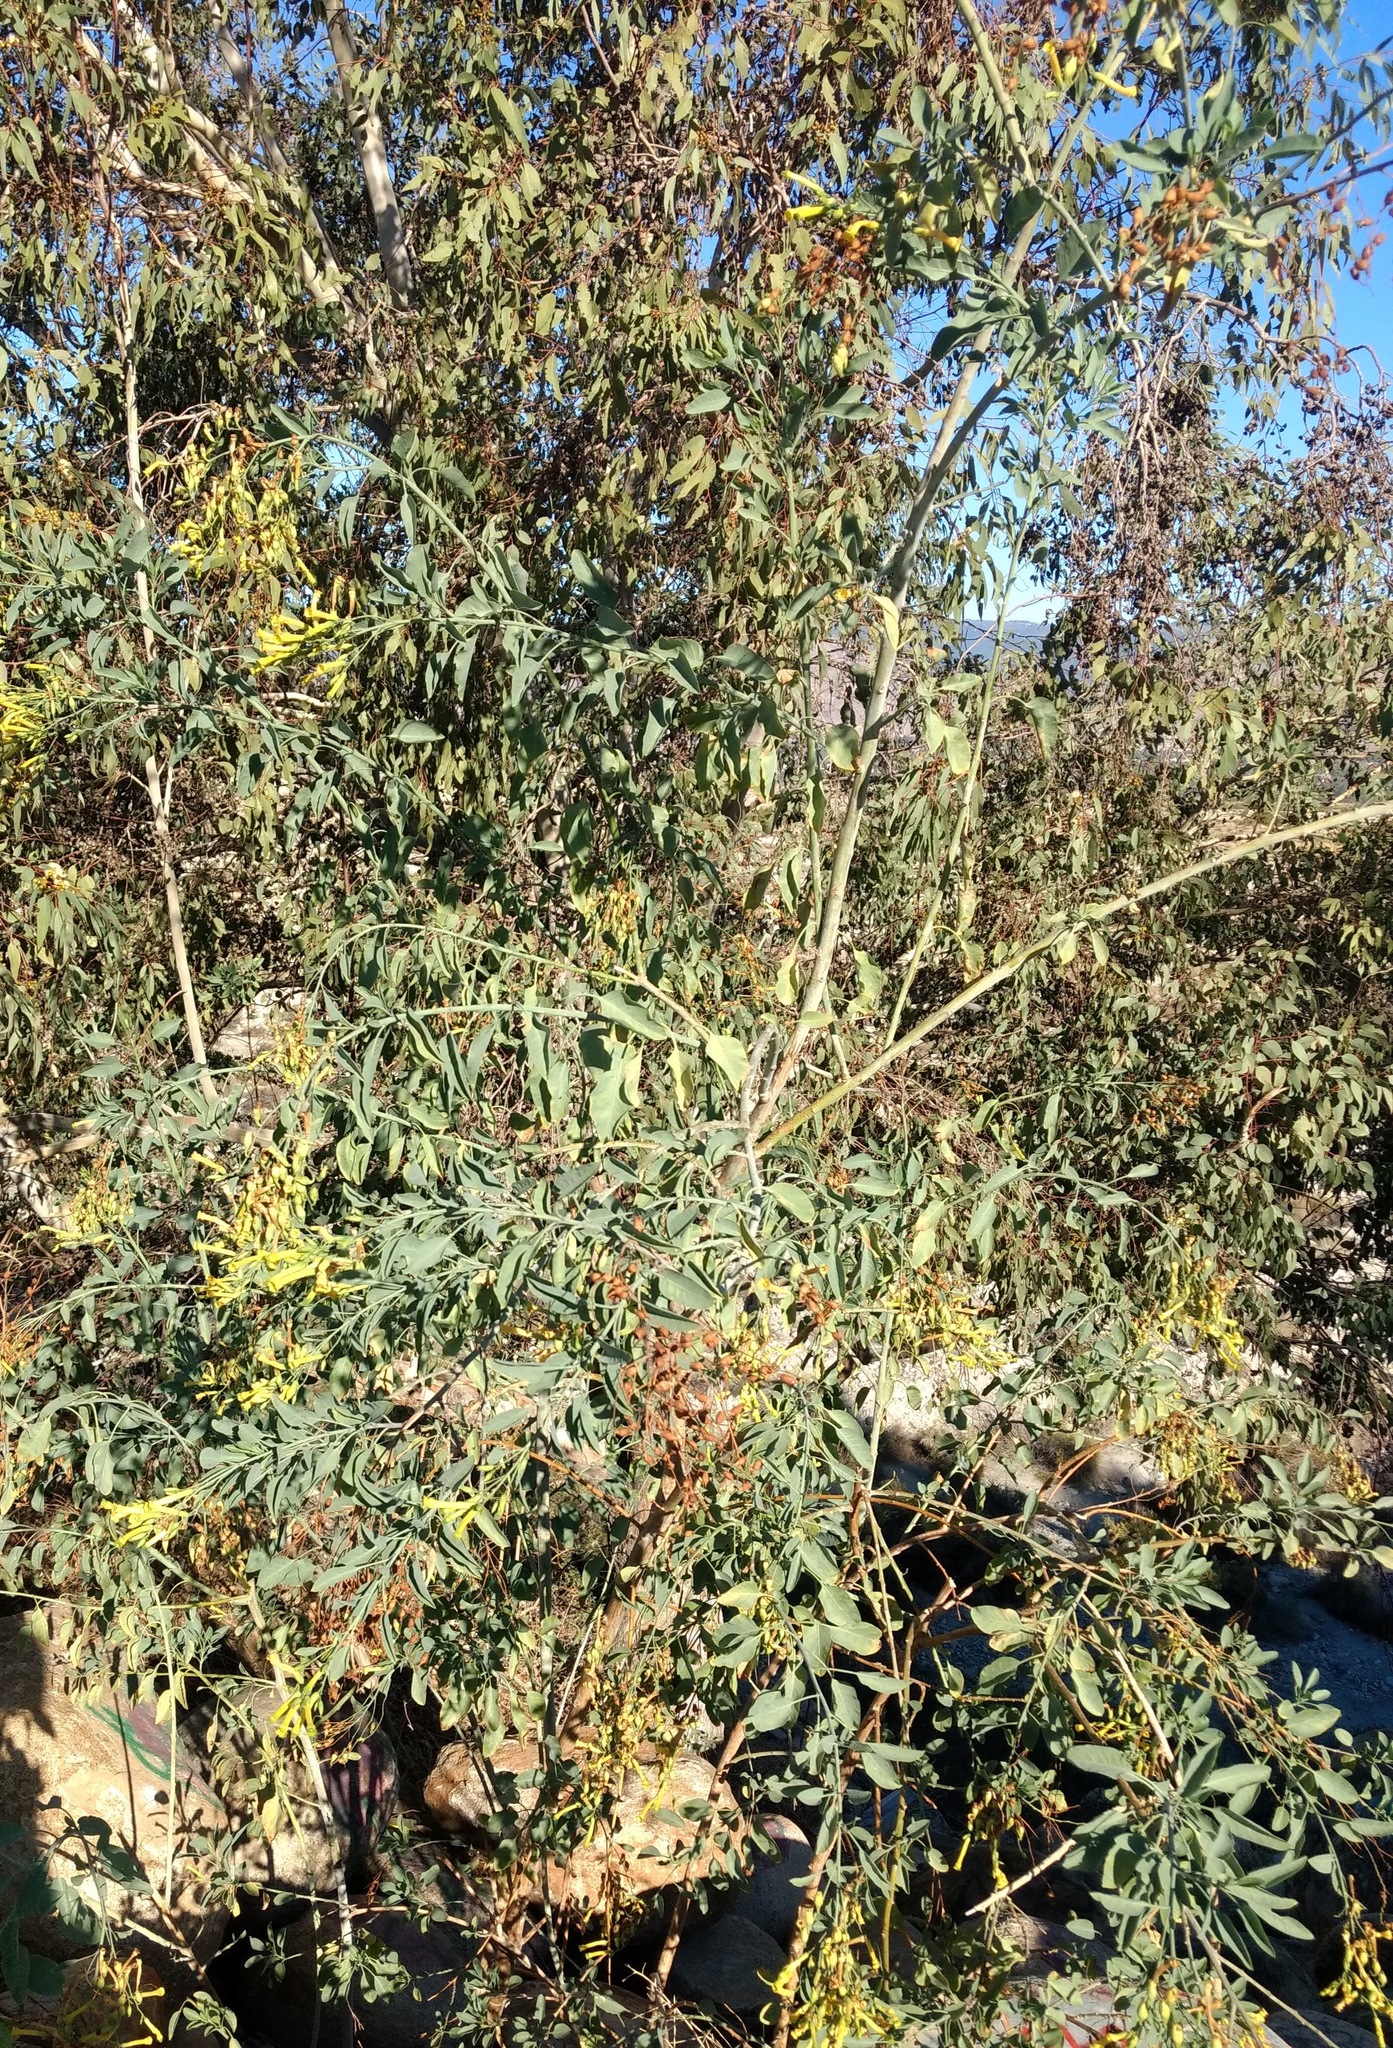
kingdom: Plantae
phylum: Tracheophyta
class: Magnoliopsida
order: Solanales
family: Solanaceae
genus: Nicotiana
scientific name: Nicotiana glauca
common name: Tree tobacco
